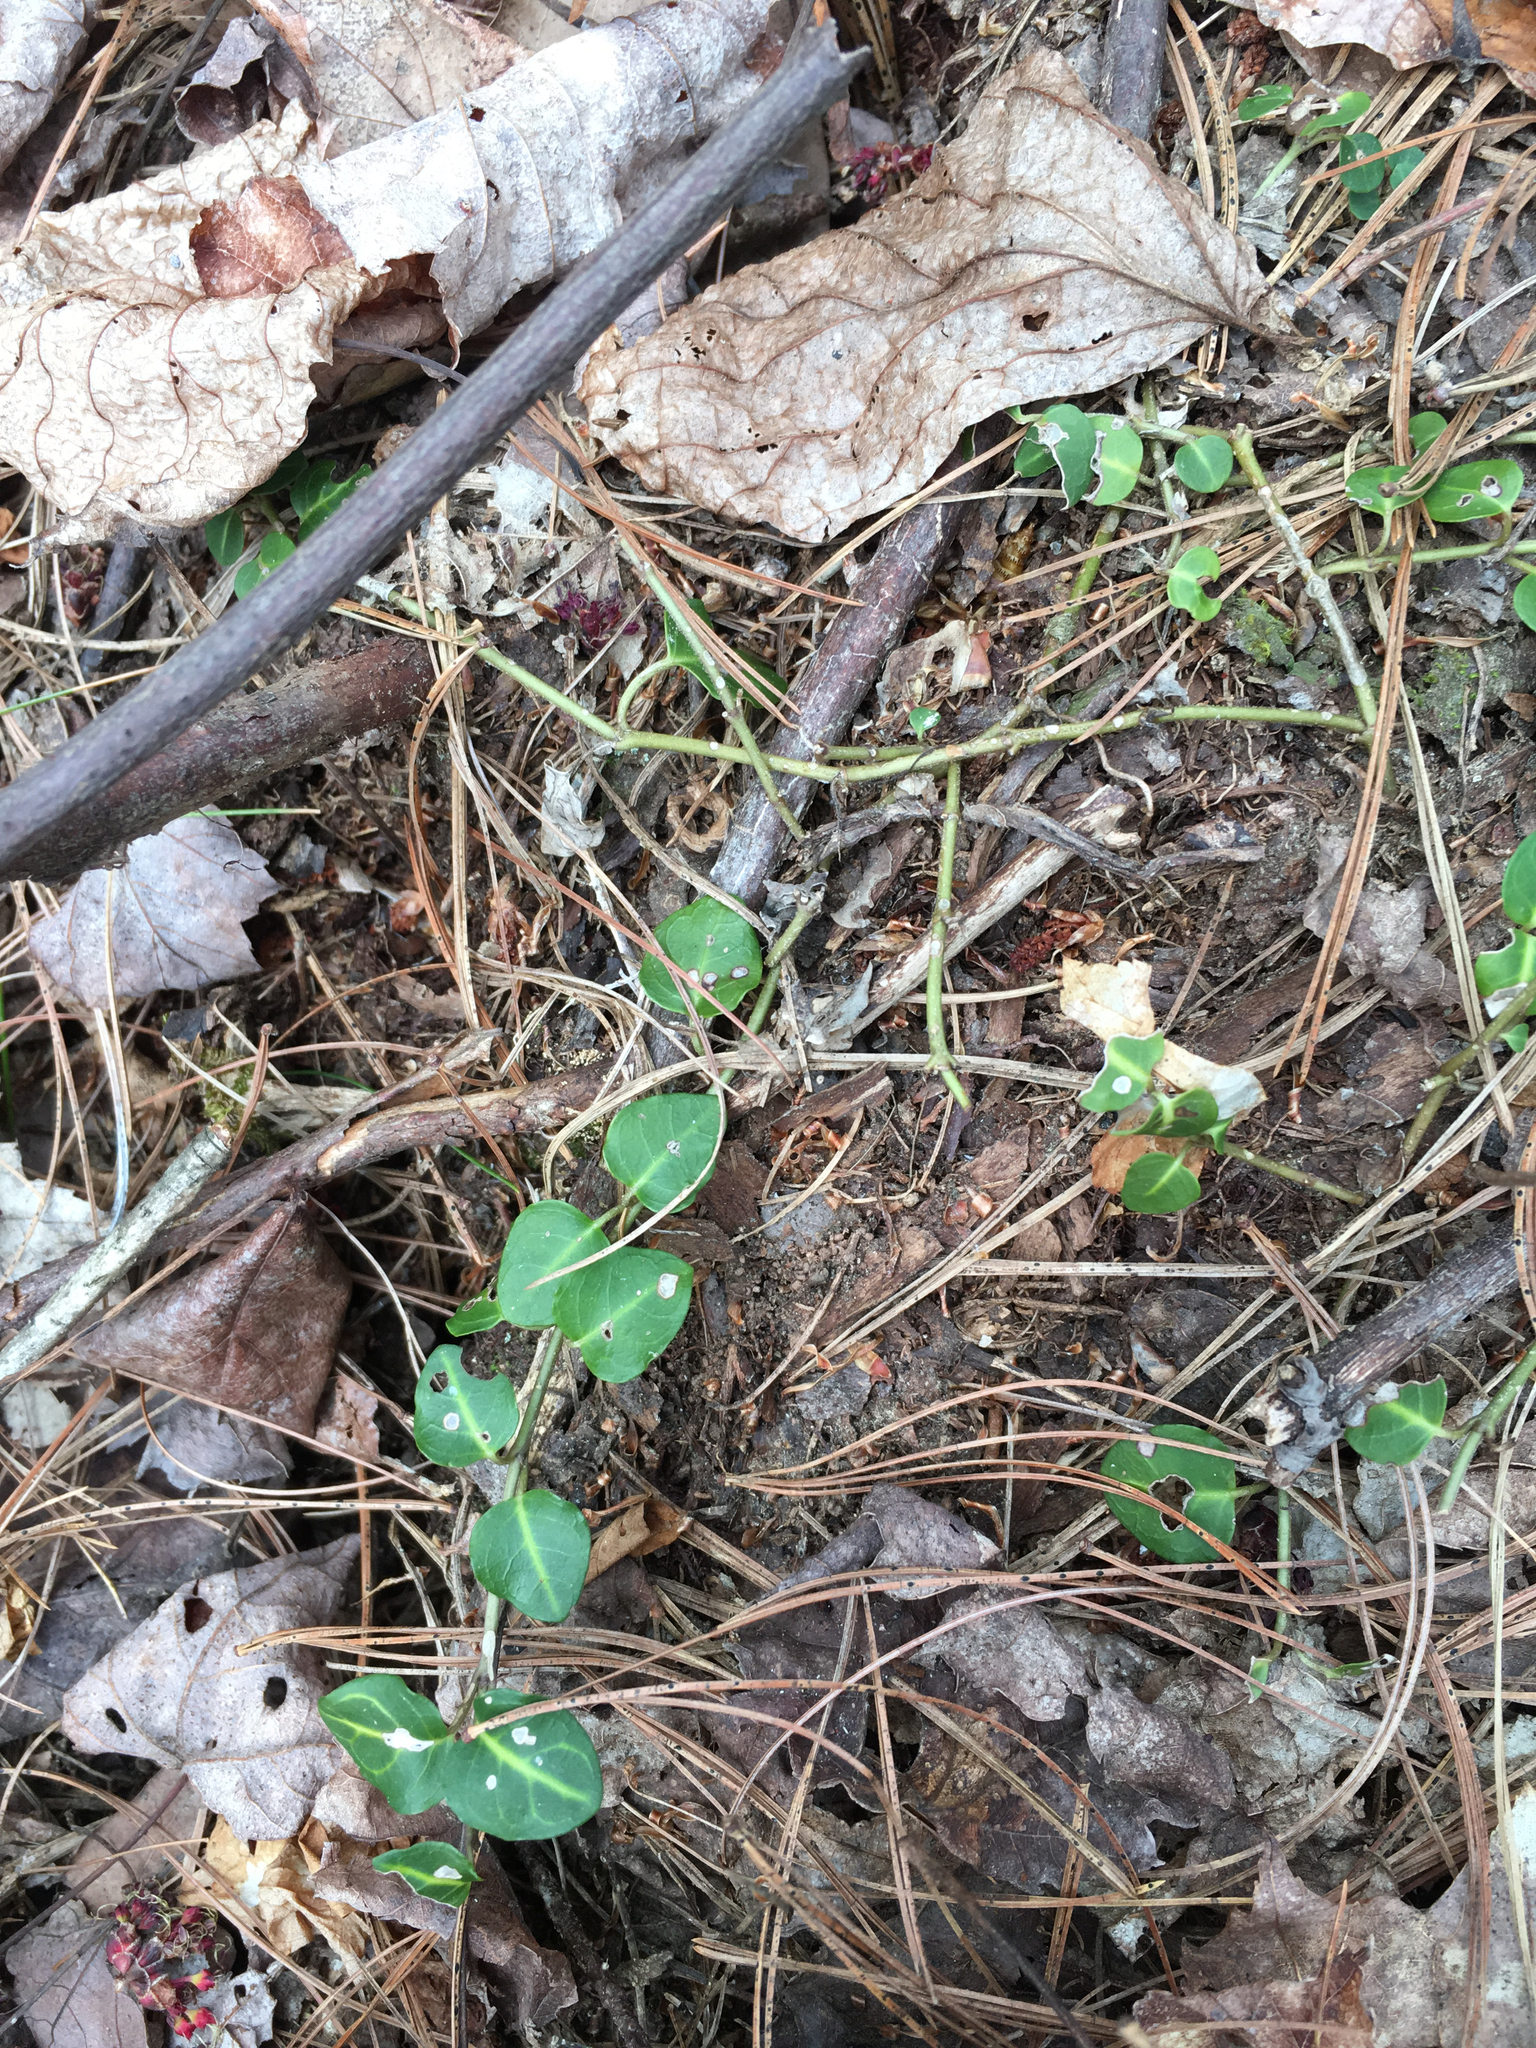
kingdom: Plantae
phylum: Tracheophyta
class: Magnoliopsida
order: Gentianales
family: Rubiaceae
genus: Mitchella
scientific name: Mitchella repens
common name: Partridge-berry
